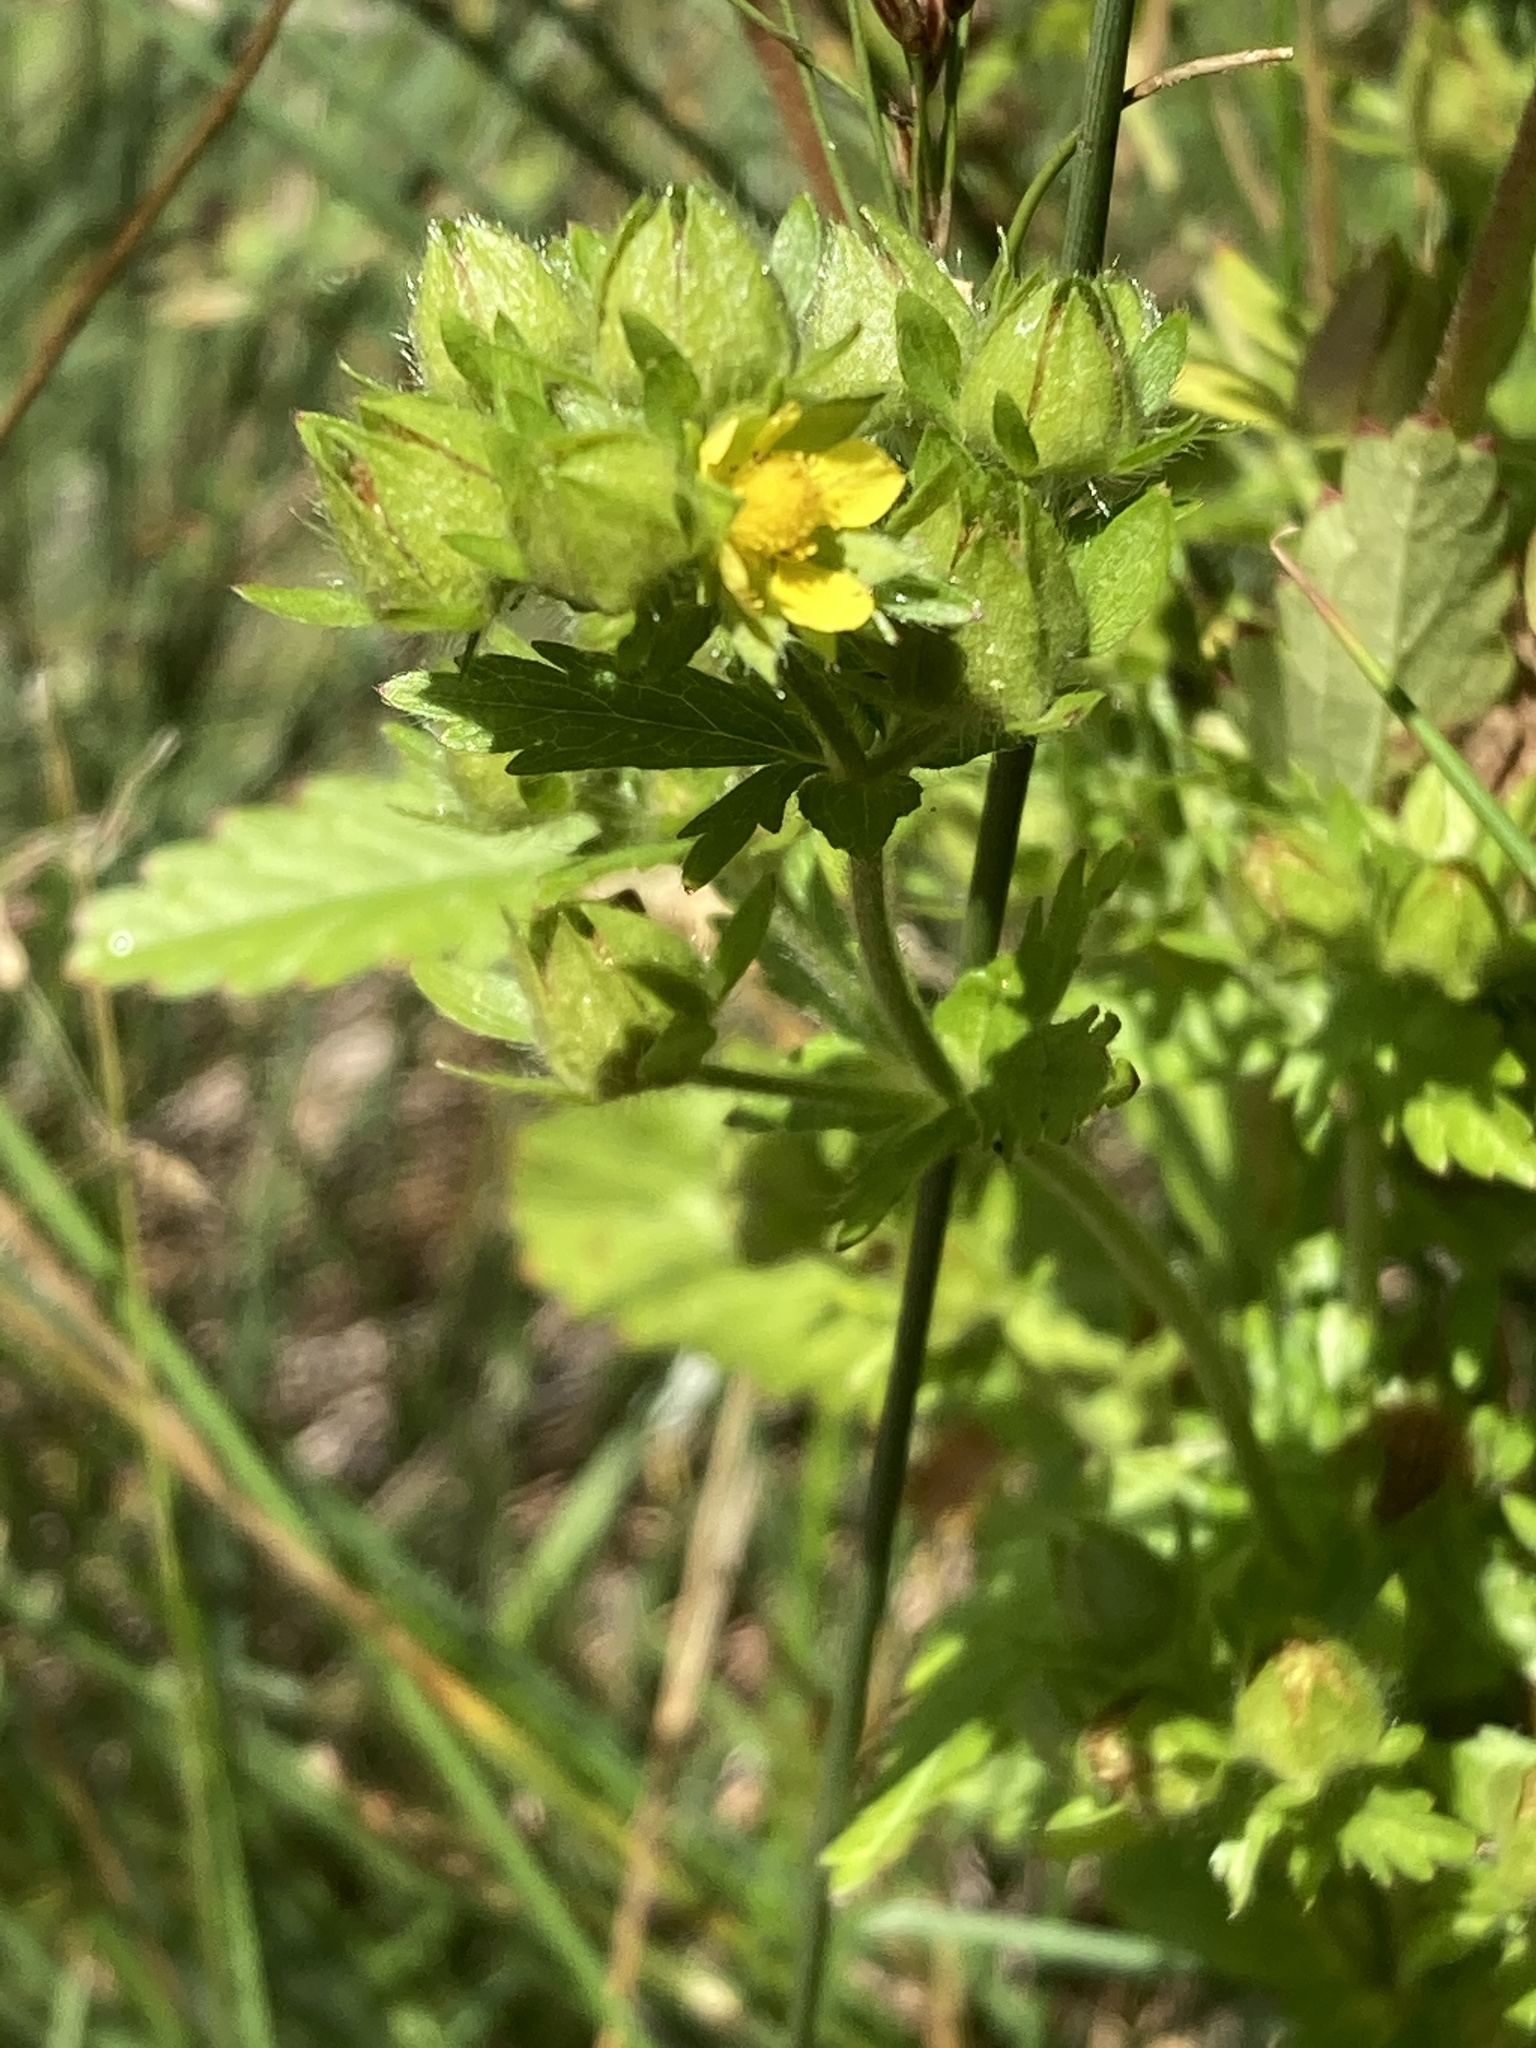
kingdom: Plantae
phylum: Tracheophyta
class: Magnoliopsida
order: Rosales
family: Rosaceae
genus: Potentilla
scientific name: Potentilla norvegica
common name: Ternate-leaved cinquefoil
